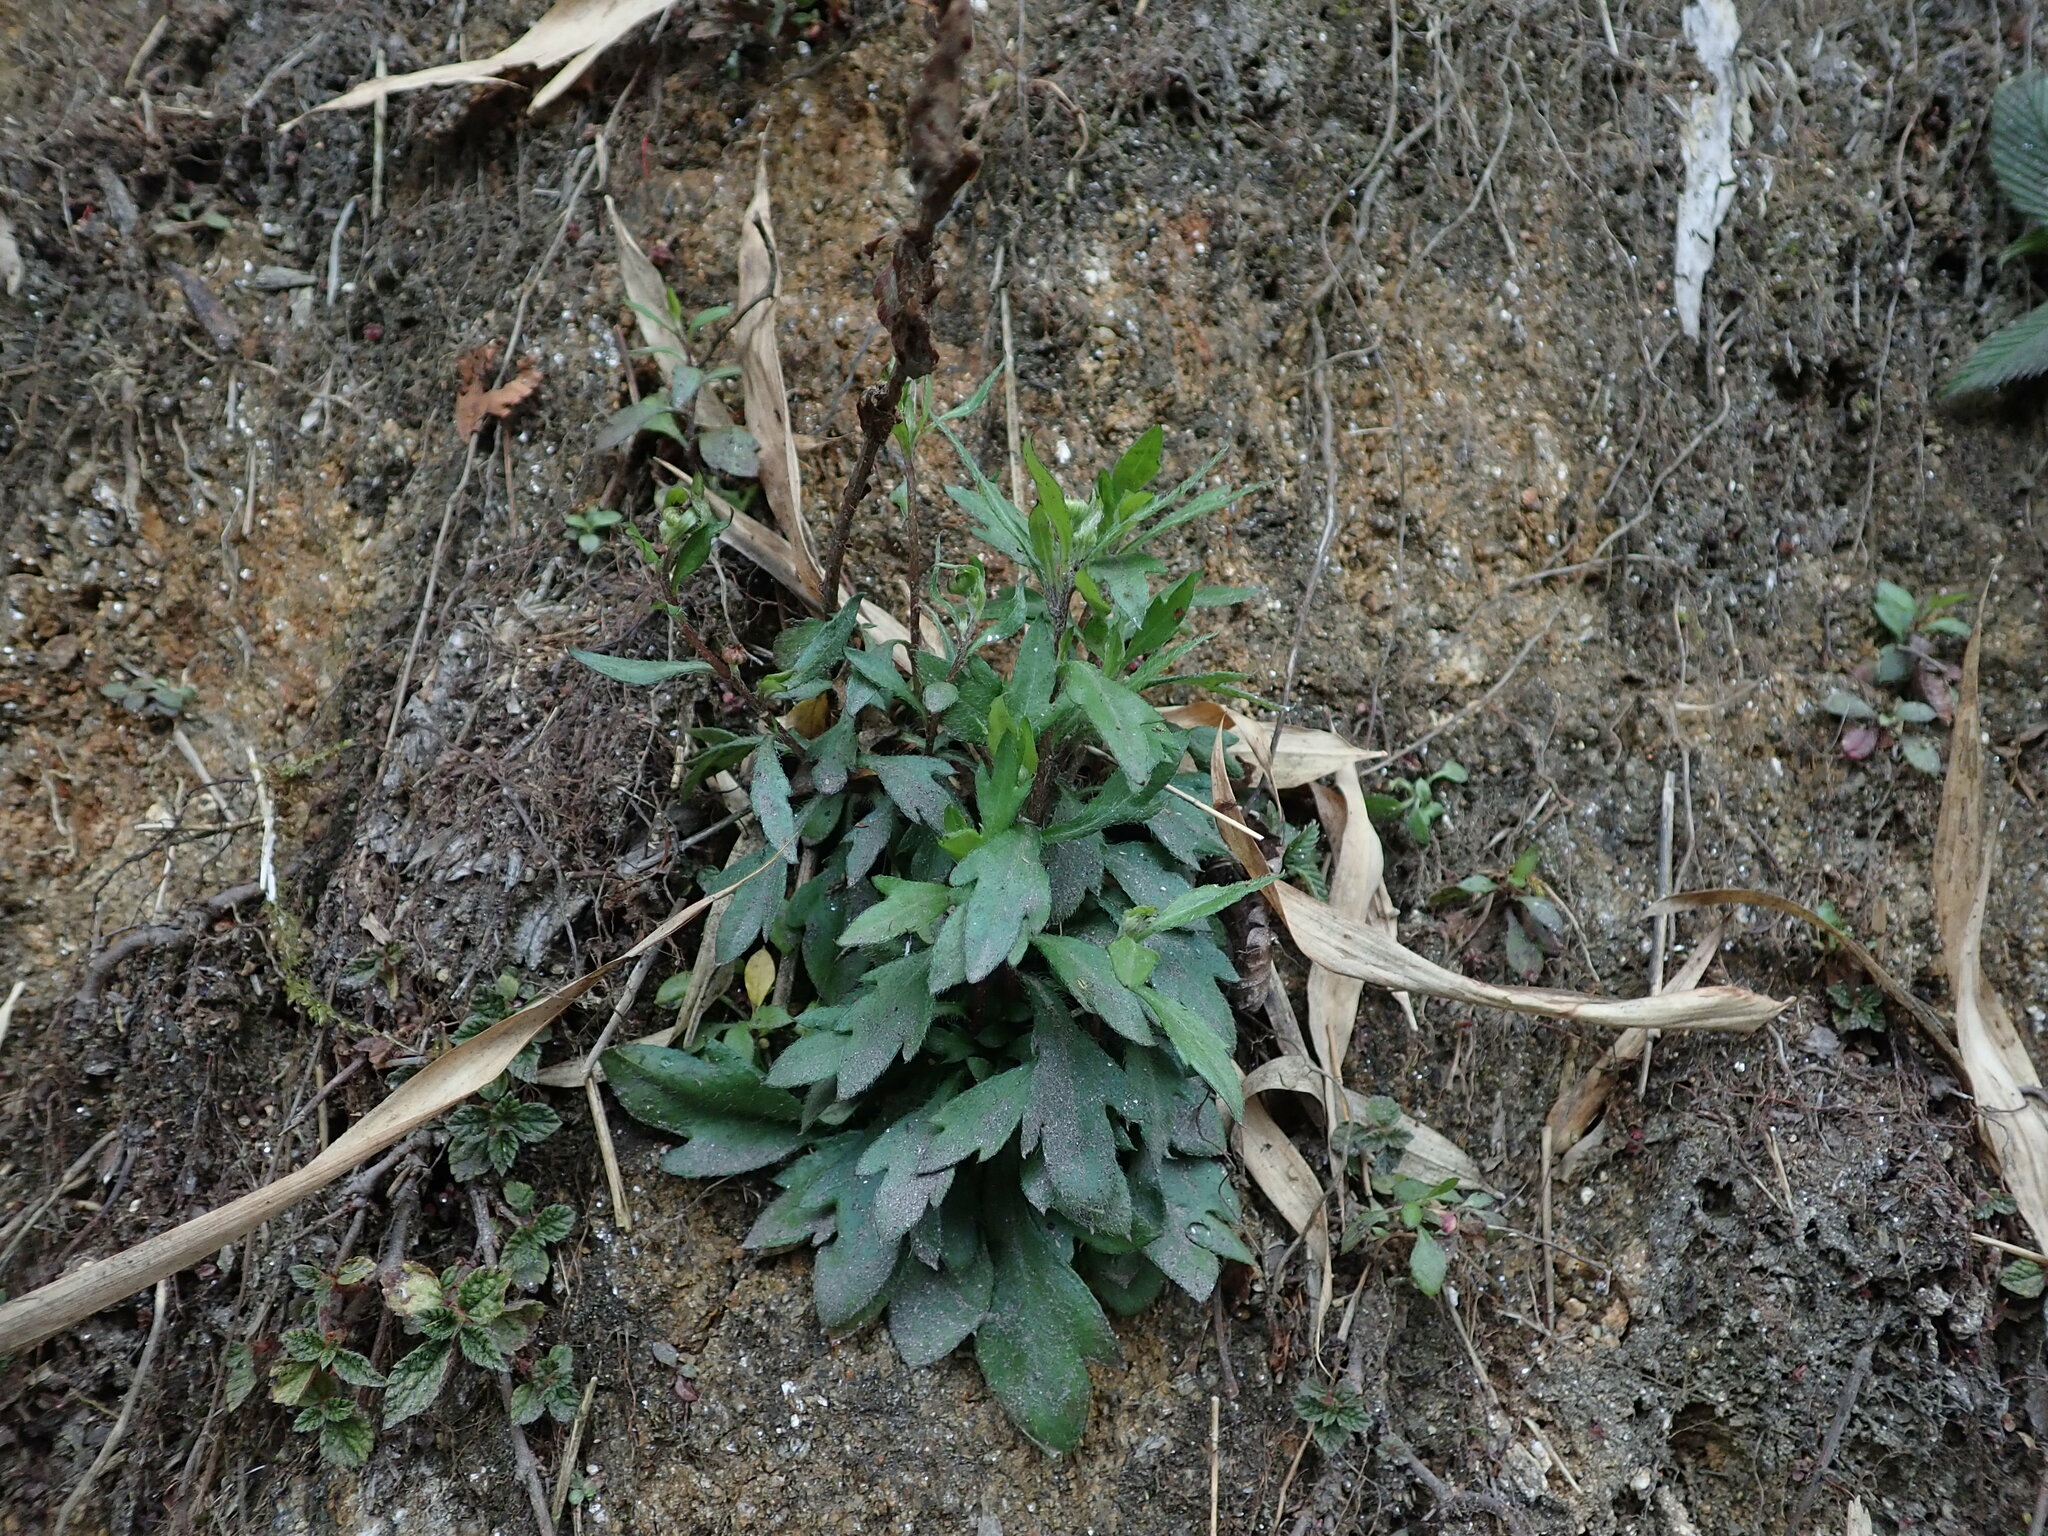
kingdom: Plantae
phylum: Tracheophyta
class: Magnoliopsida
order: Asterales
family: Asteraceae
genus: Erigeron
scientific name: Erigeron karvinskianus
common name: Mexican fleabane
